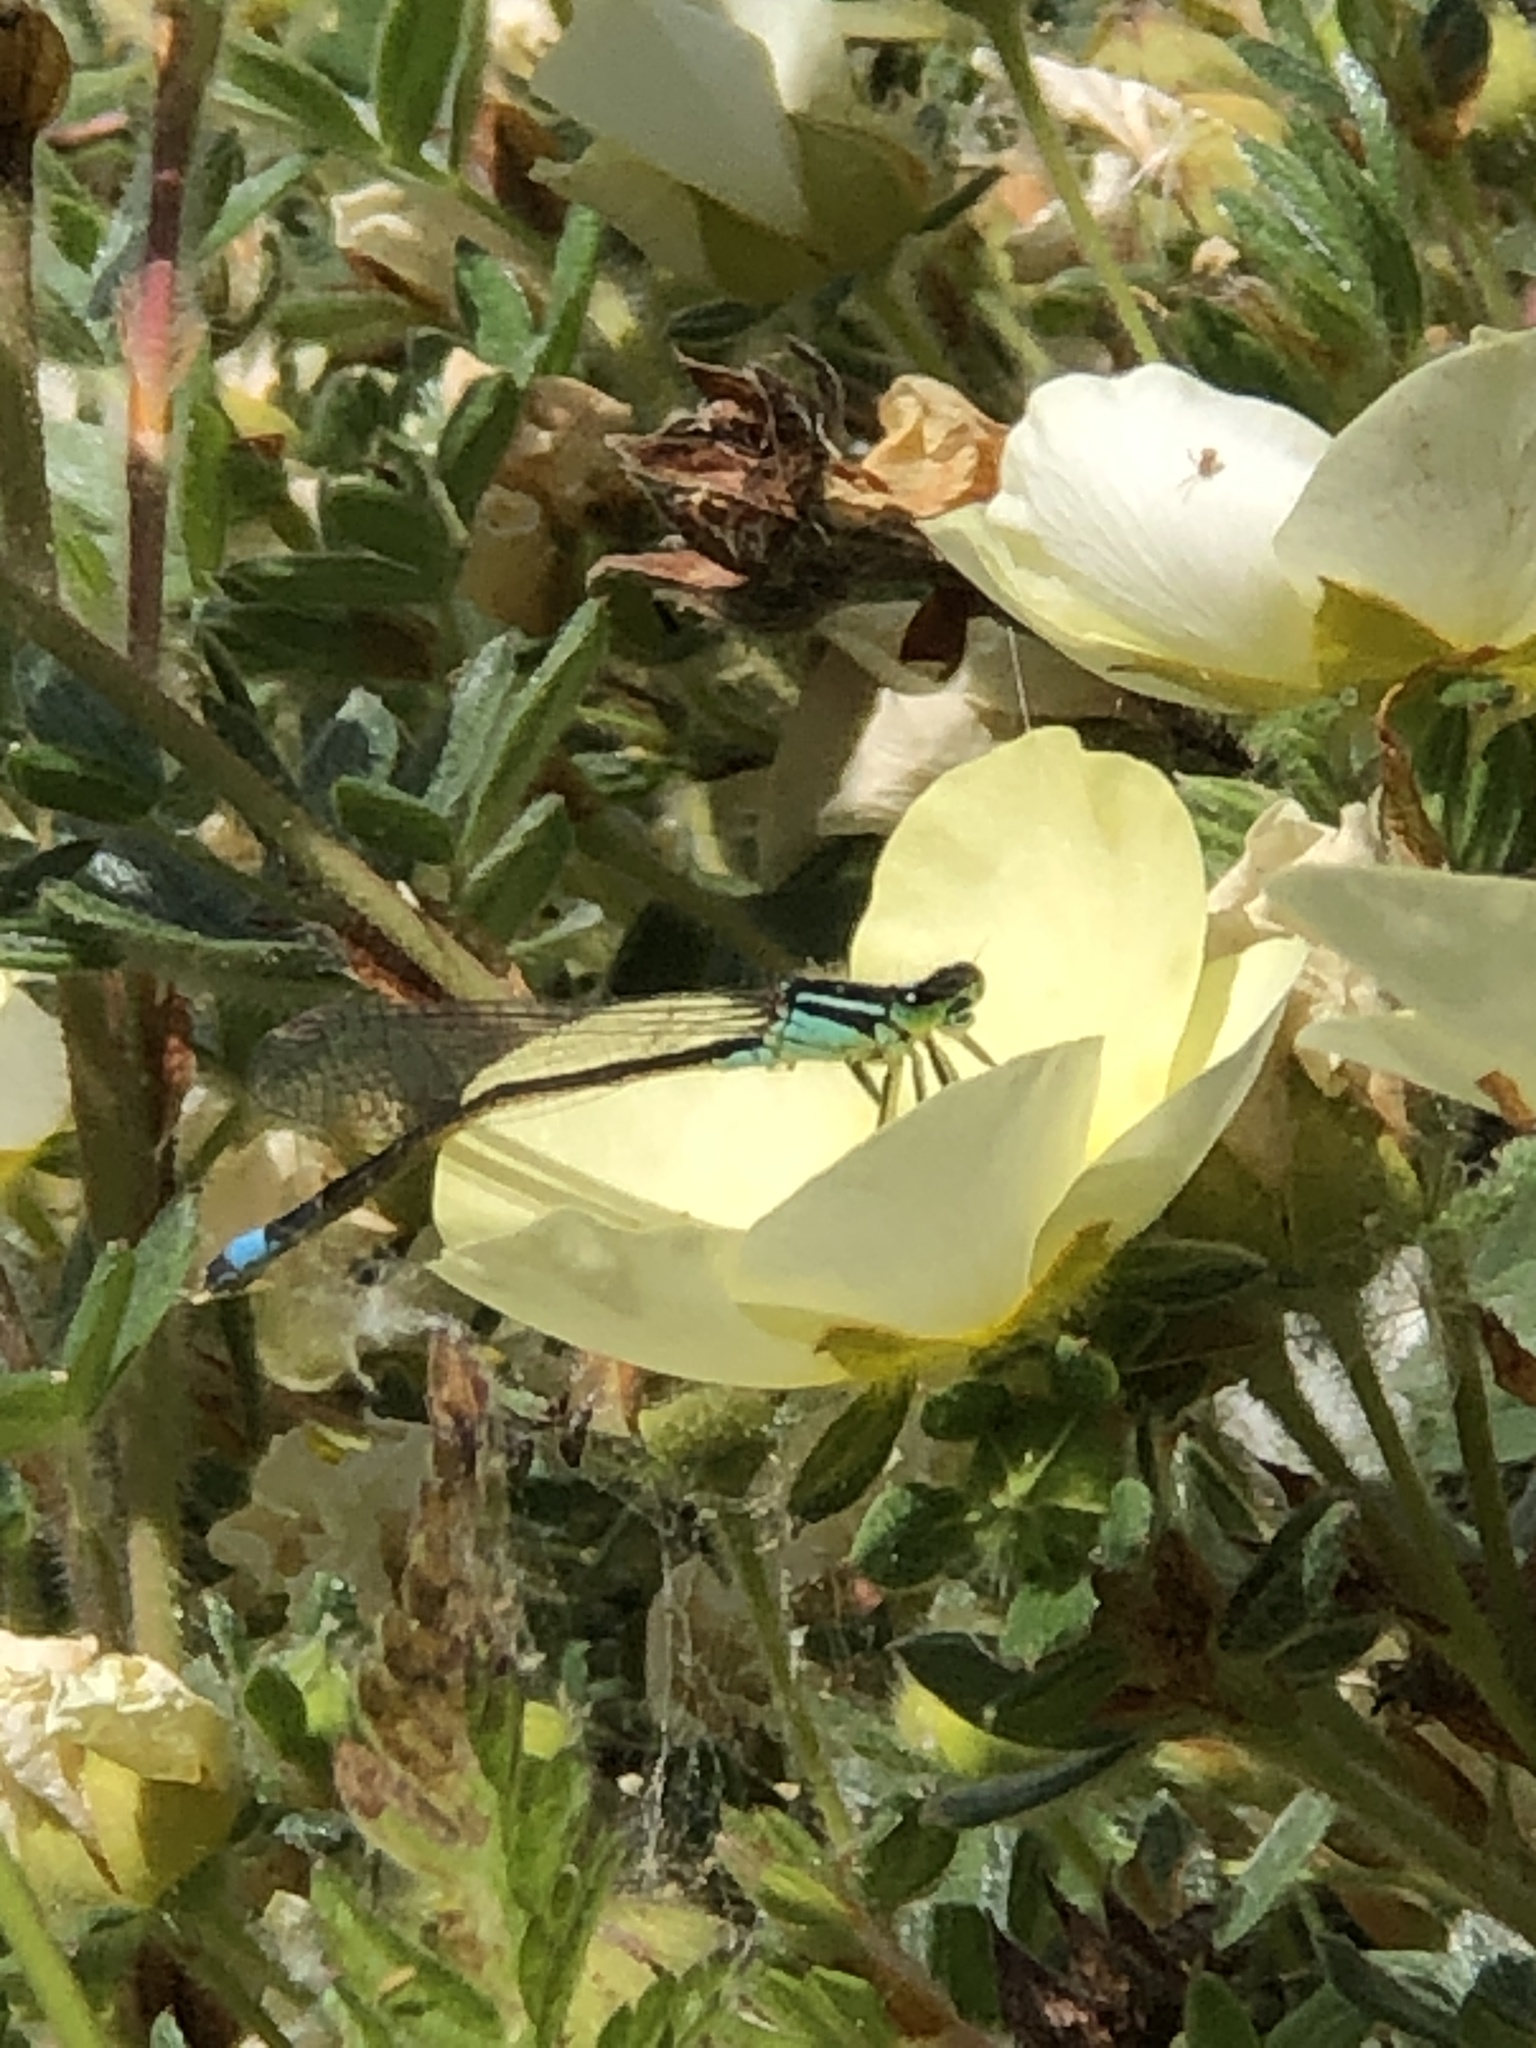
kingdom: Animalia
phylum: Arthropoda
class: Insecta
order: Odonata
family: Coenagrionidae
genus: Ischnura
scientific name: Ischnura elegans
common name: Blue-tailed damselfly
